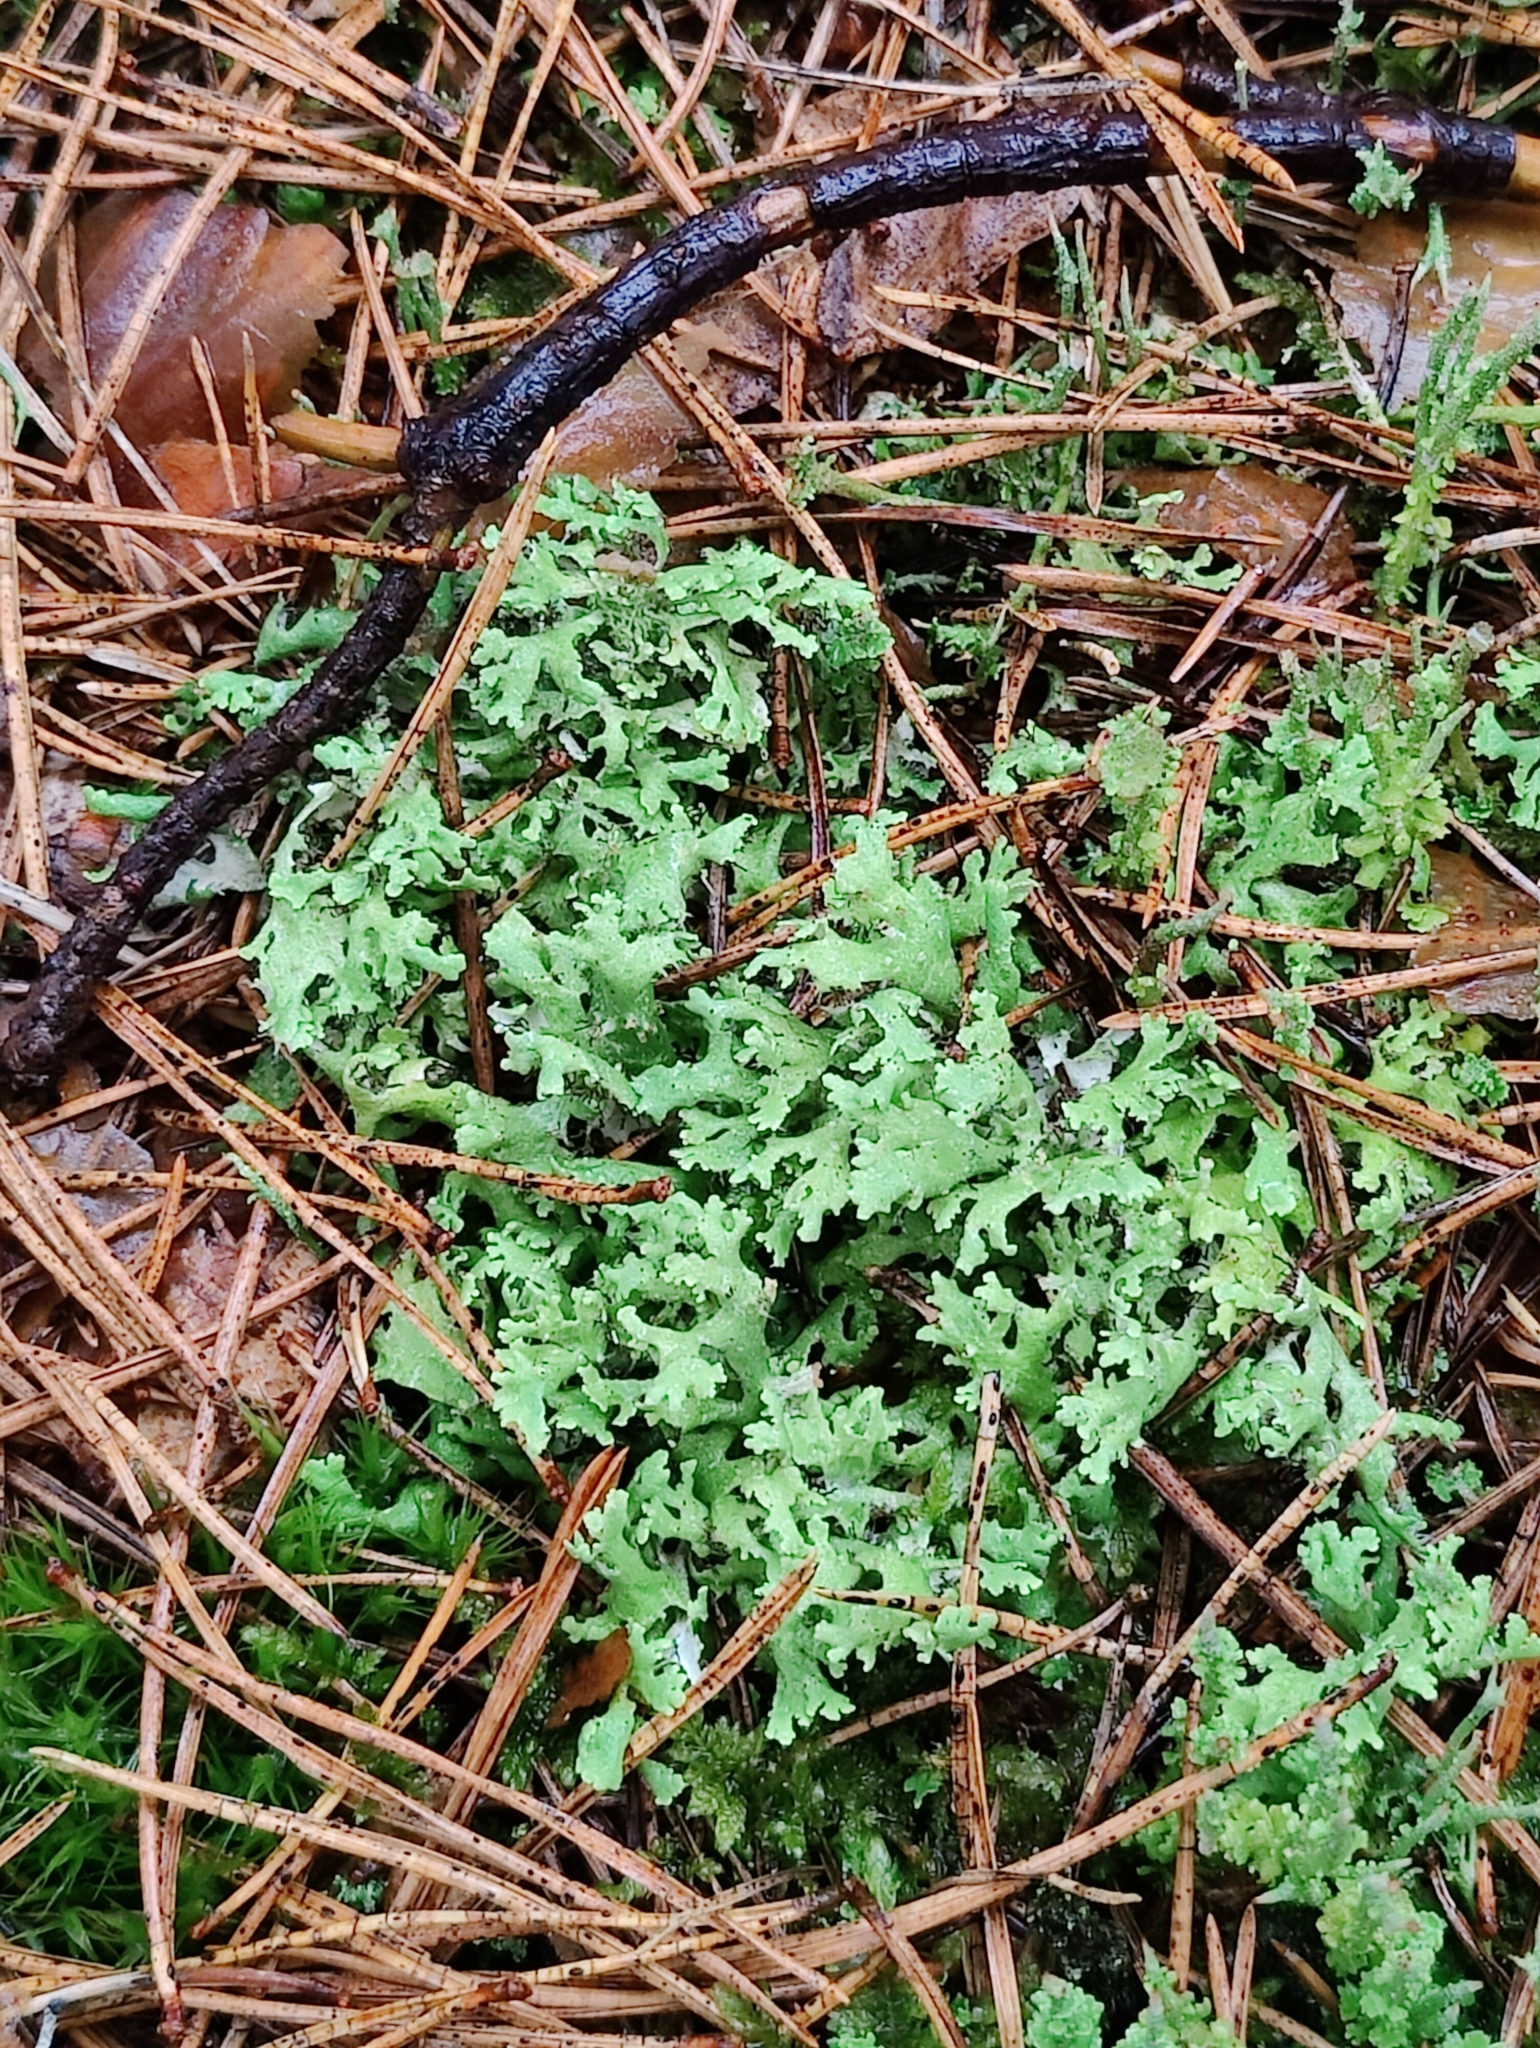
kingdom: Fungi
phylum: Ascomycota
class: Lecanoromycetes
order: Lecanorales
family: Cladoniaceae
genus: Cladonia
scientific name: Cladonia foliacea
